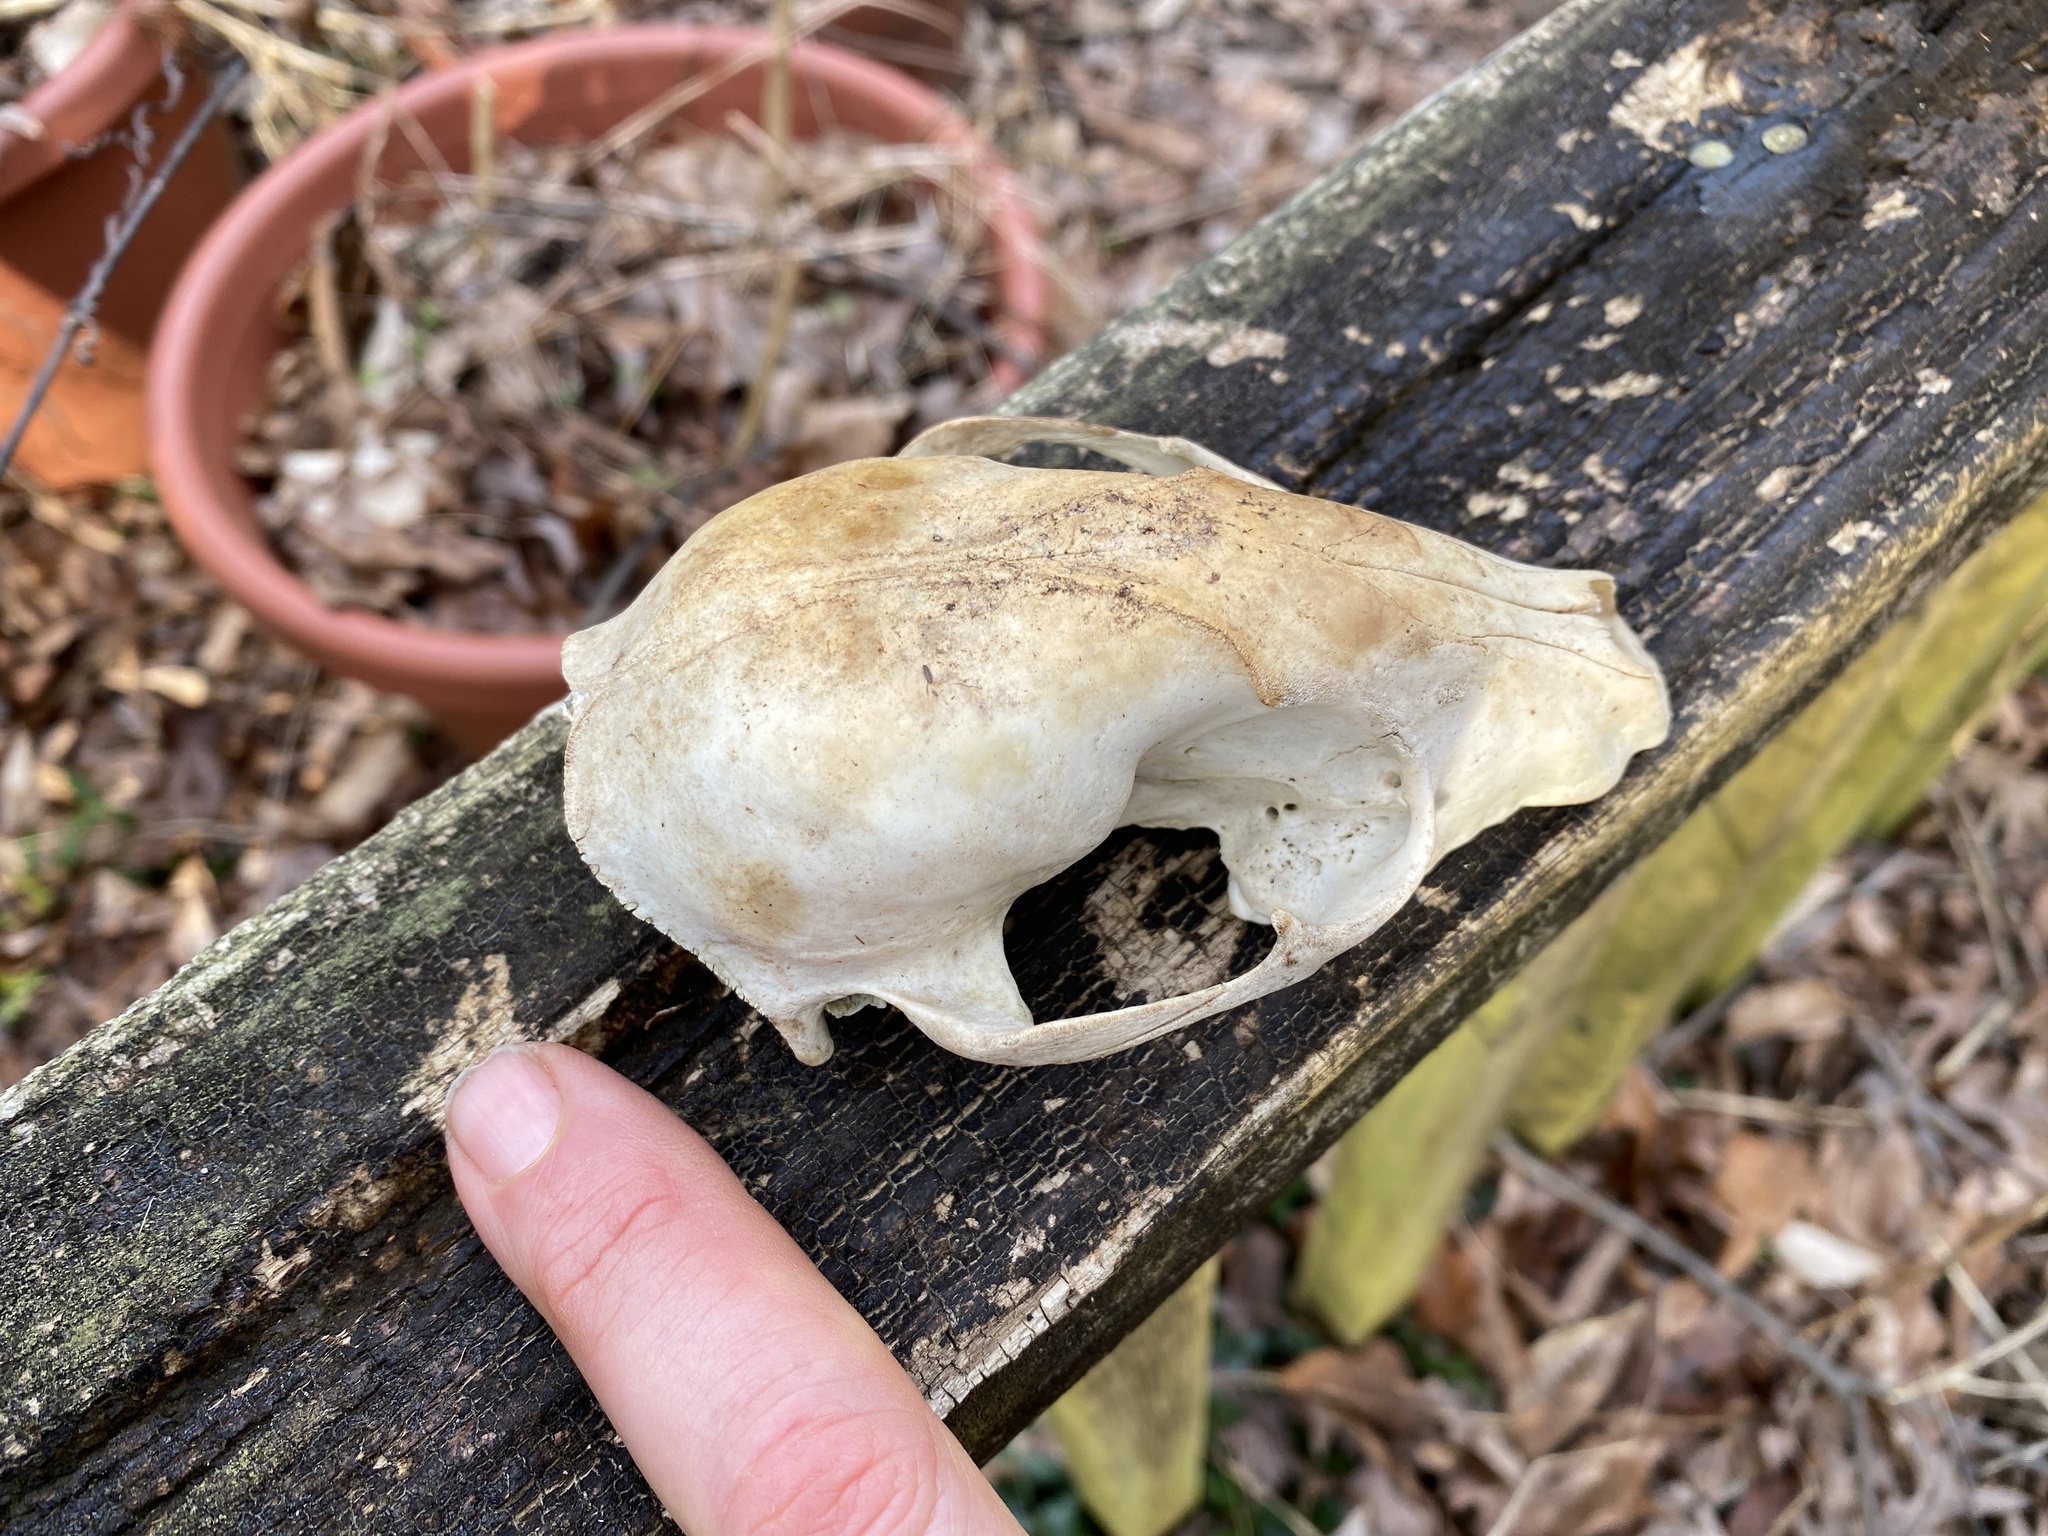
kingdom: Animalia
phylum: Chordata
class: Mammalia
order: Carnivora
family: Procyonidae
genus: Procyon
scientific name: Procyon lotor
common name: Raccoon
